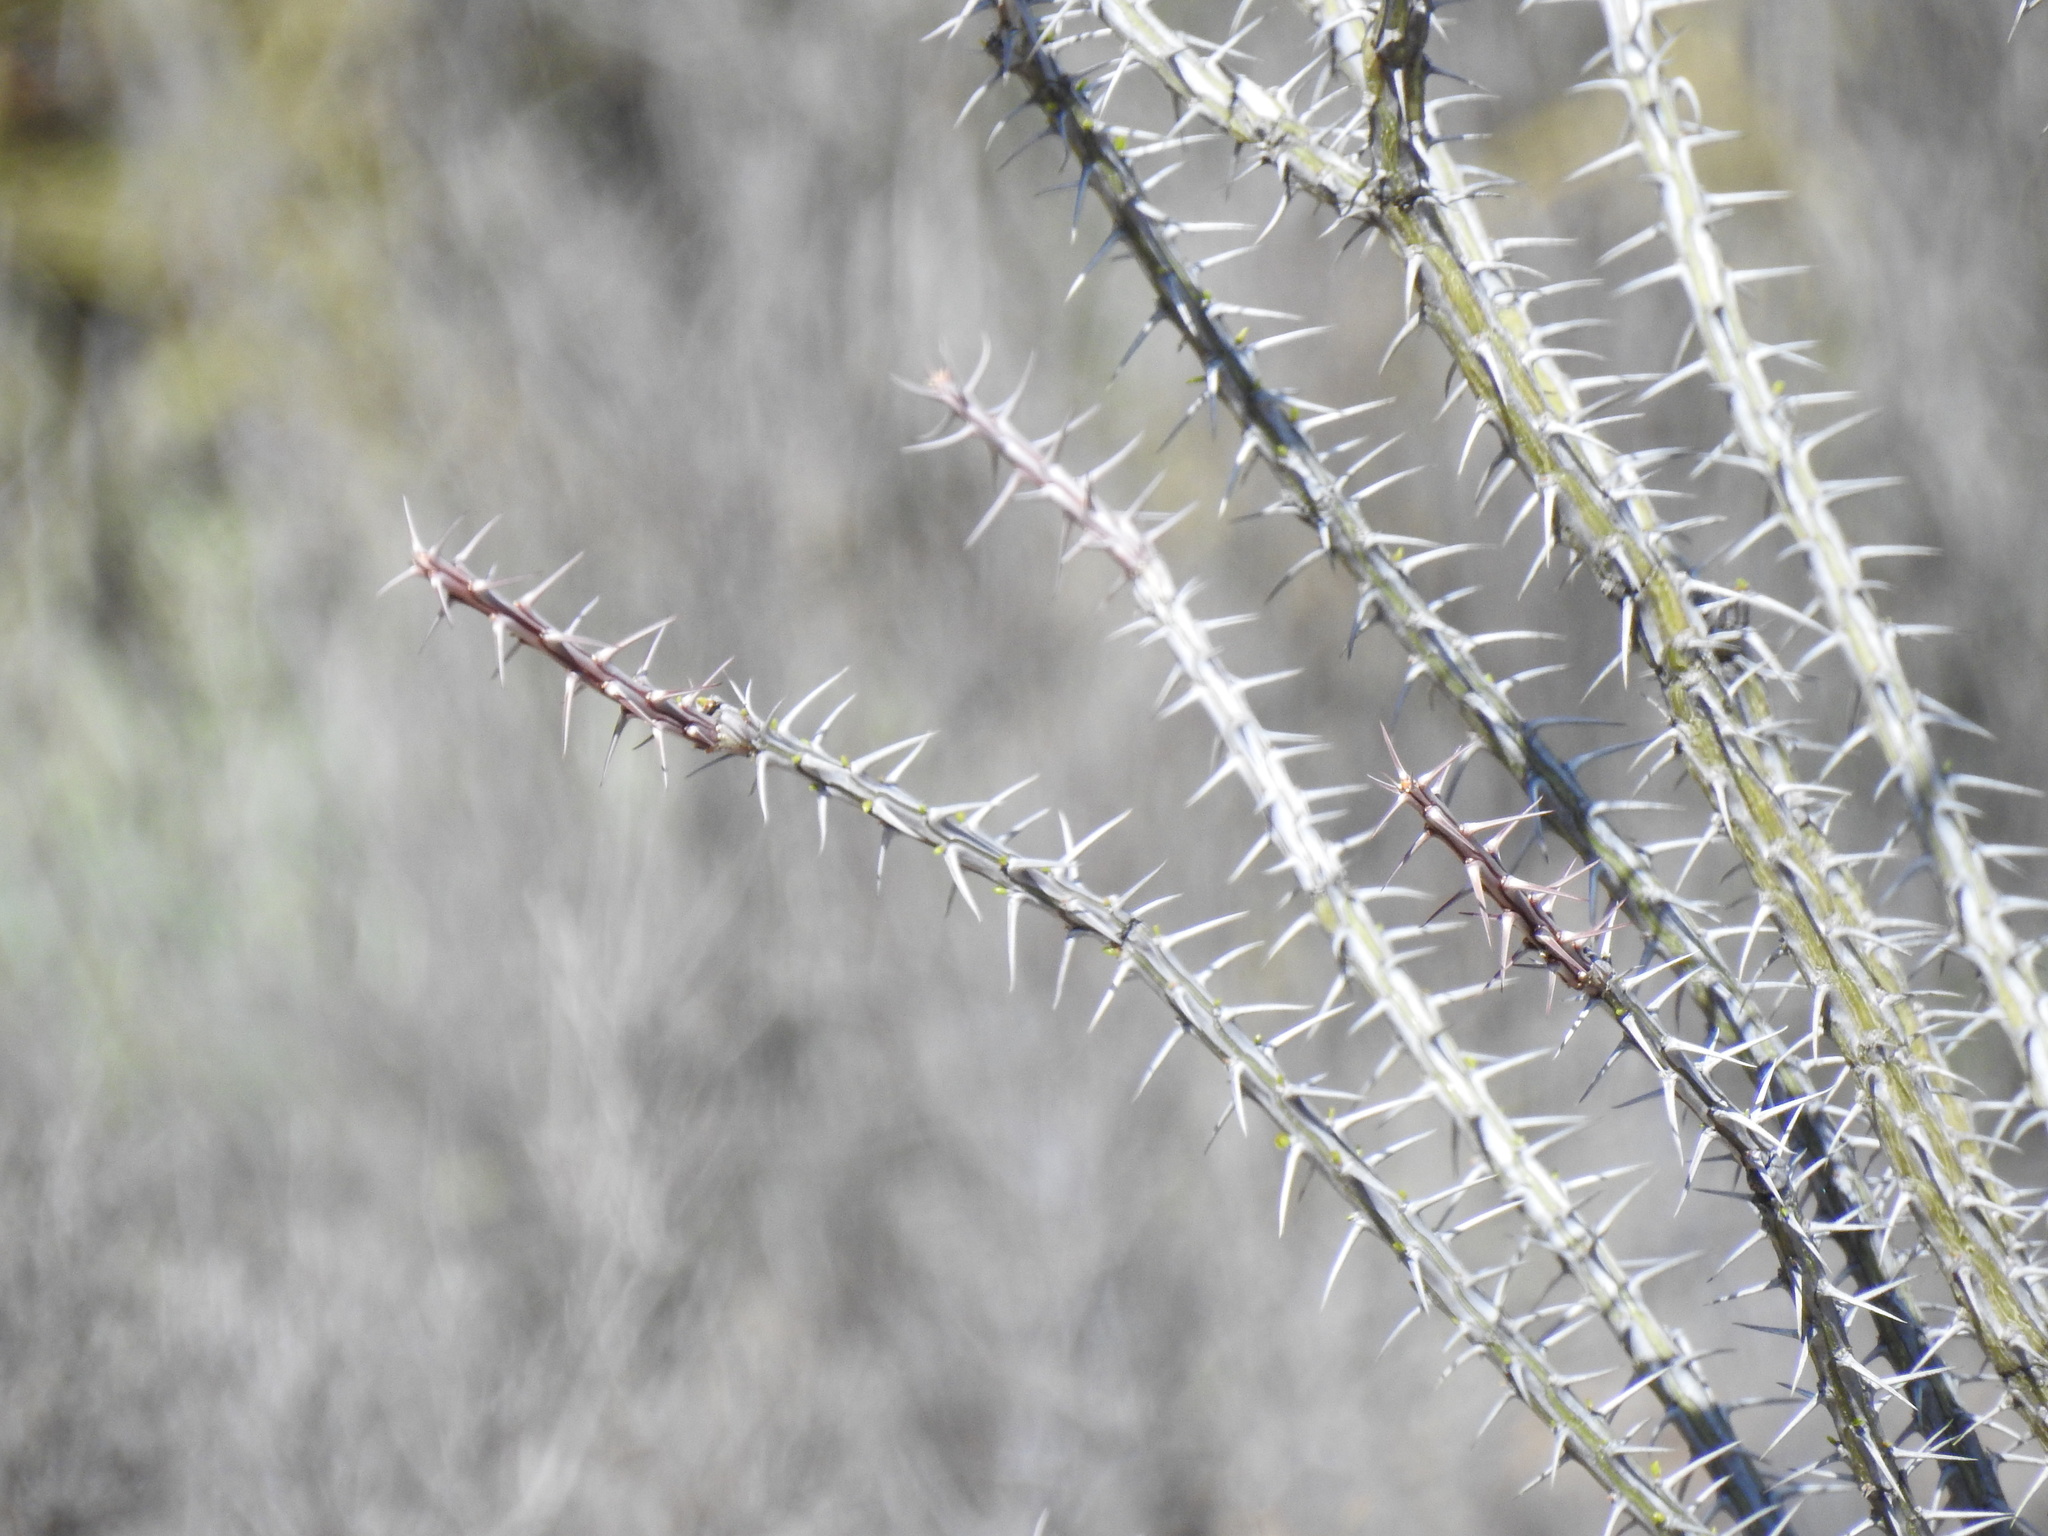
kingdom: Plantae
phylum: Tracheophyta
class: Magnoliopsida
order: Ericales
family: Fouquieriaceae
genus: Fouquieria
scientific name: Fouquieria splendens
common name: Vine-cactus
